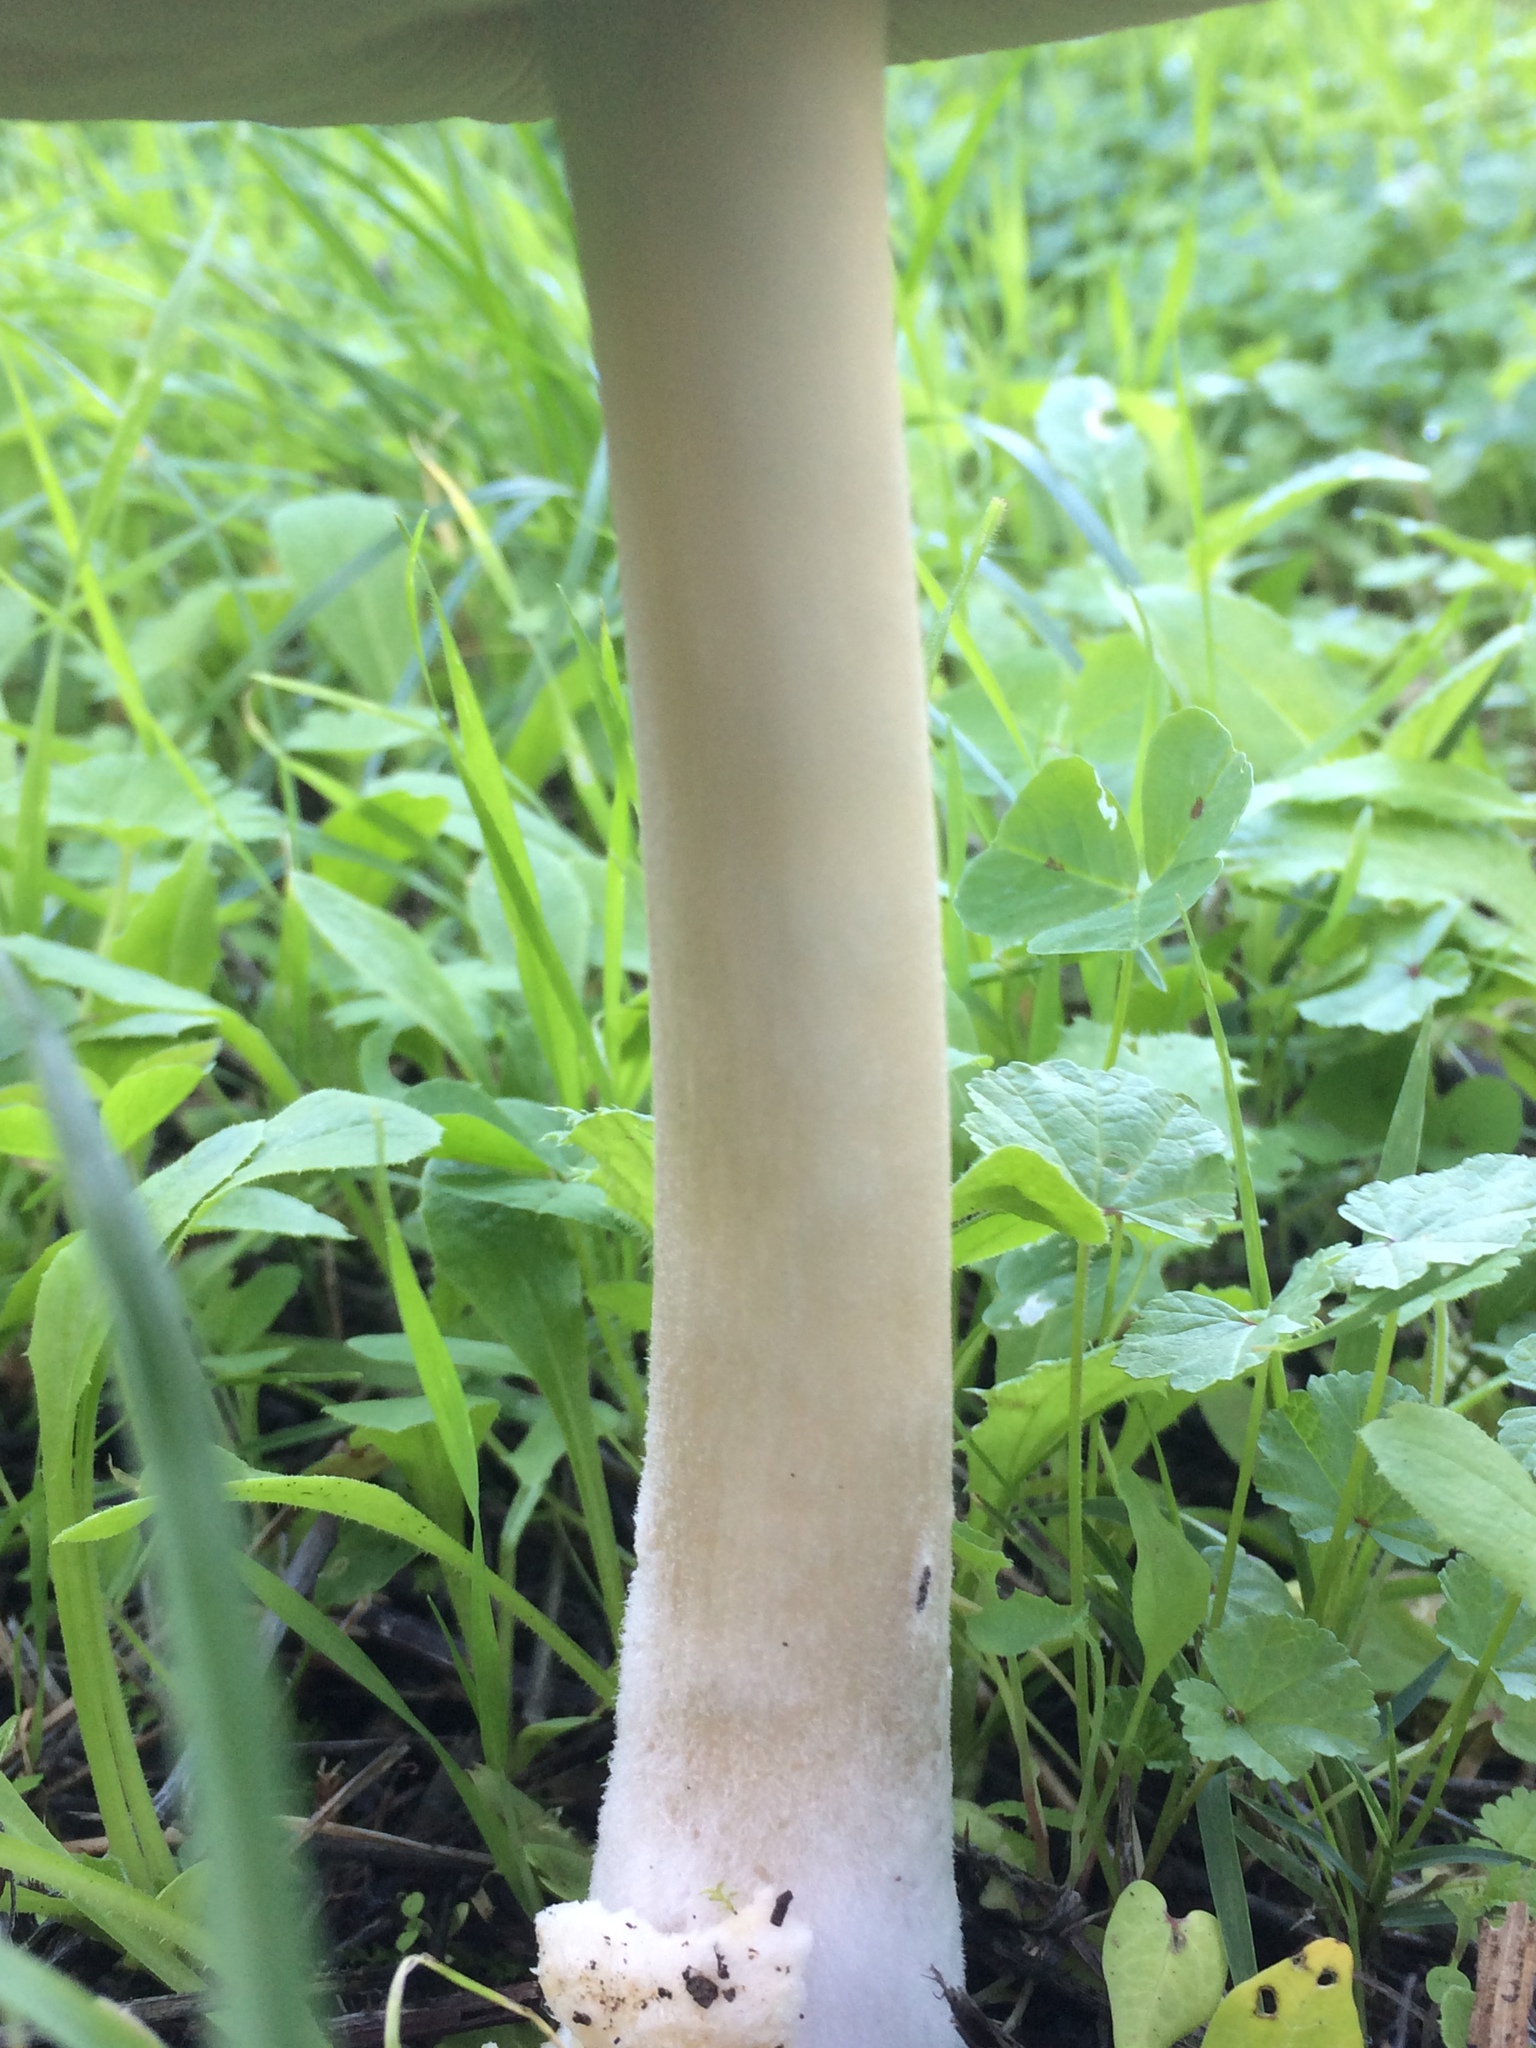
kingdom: Fungi
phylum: Basidiomycota
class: Agaricomycetes
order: Agaricales
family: Pluteaceae
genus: Volvopluteus
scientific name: Volvopluteus gloiocephalus
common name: Stubble rosegill
